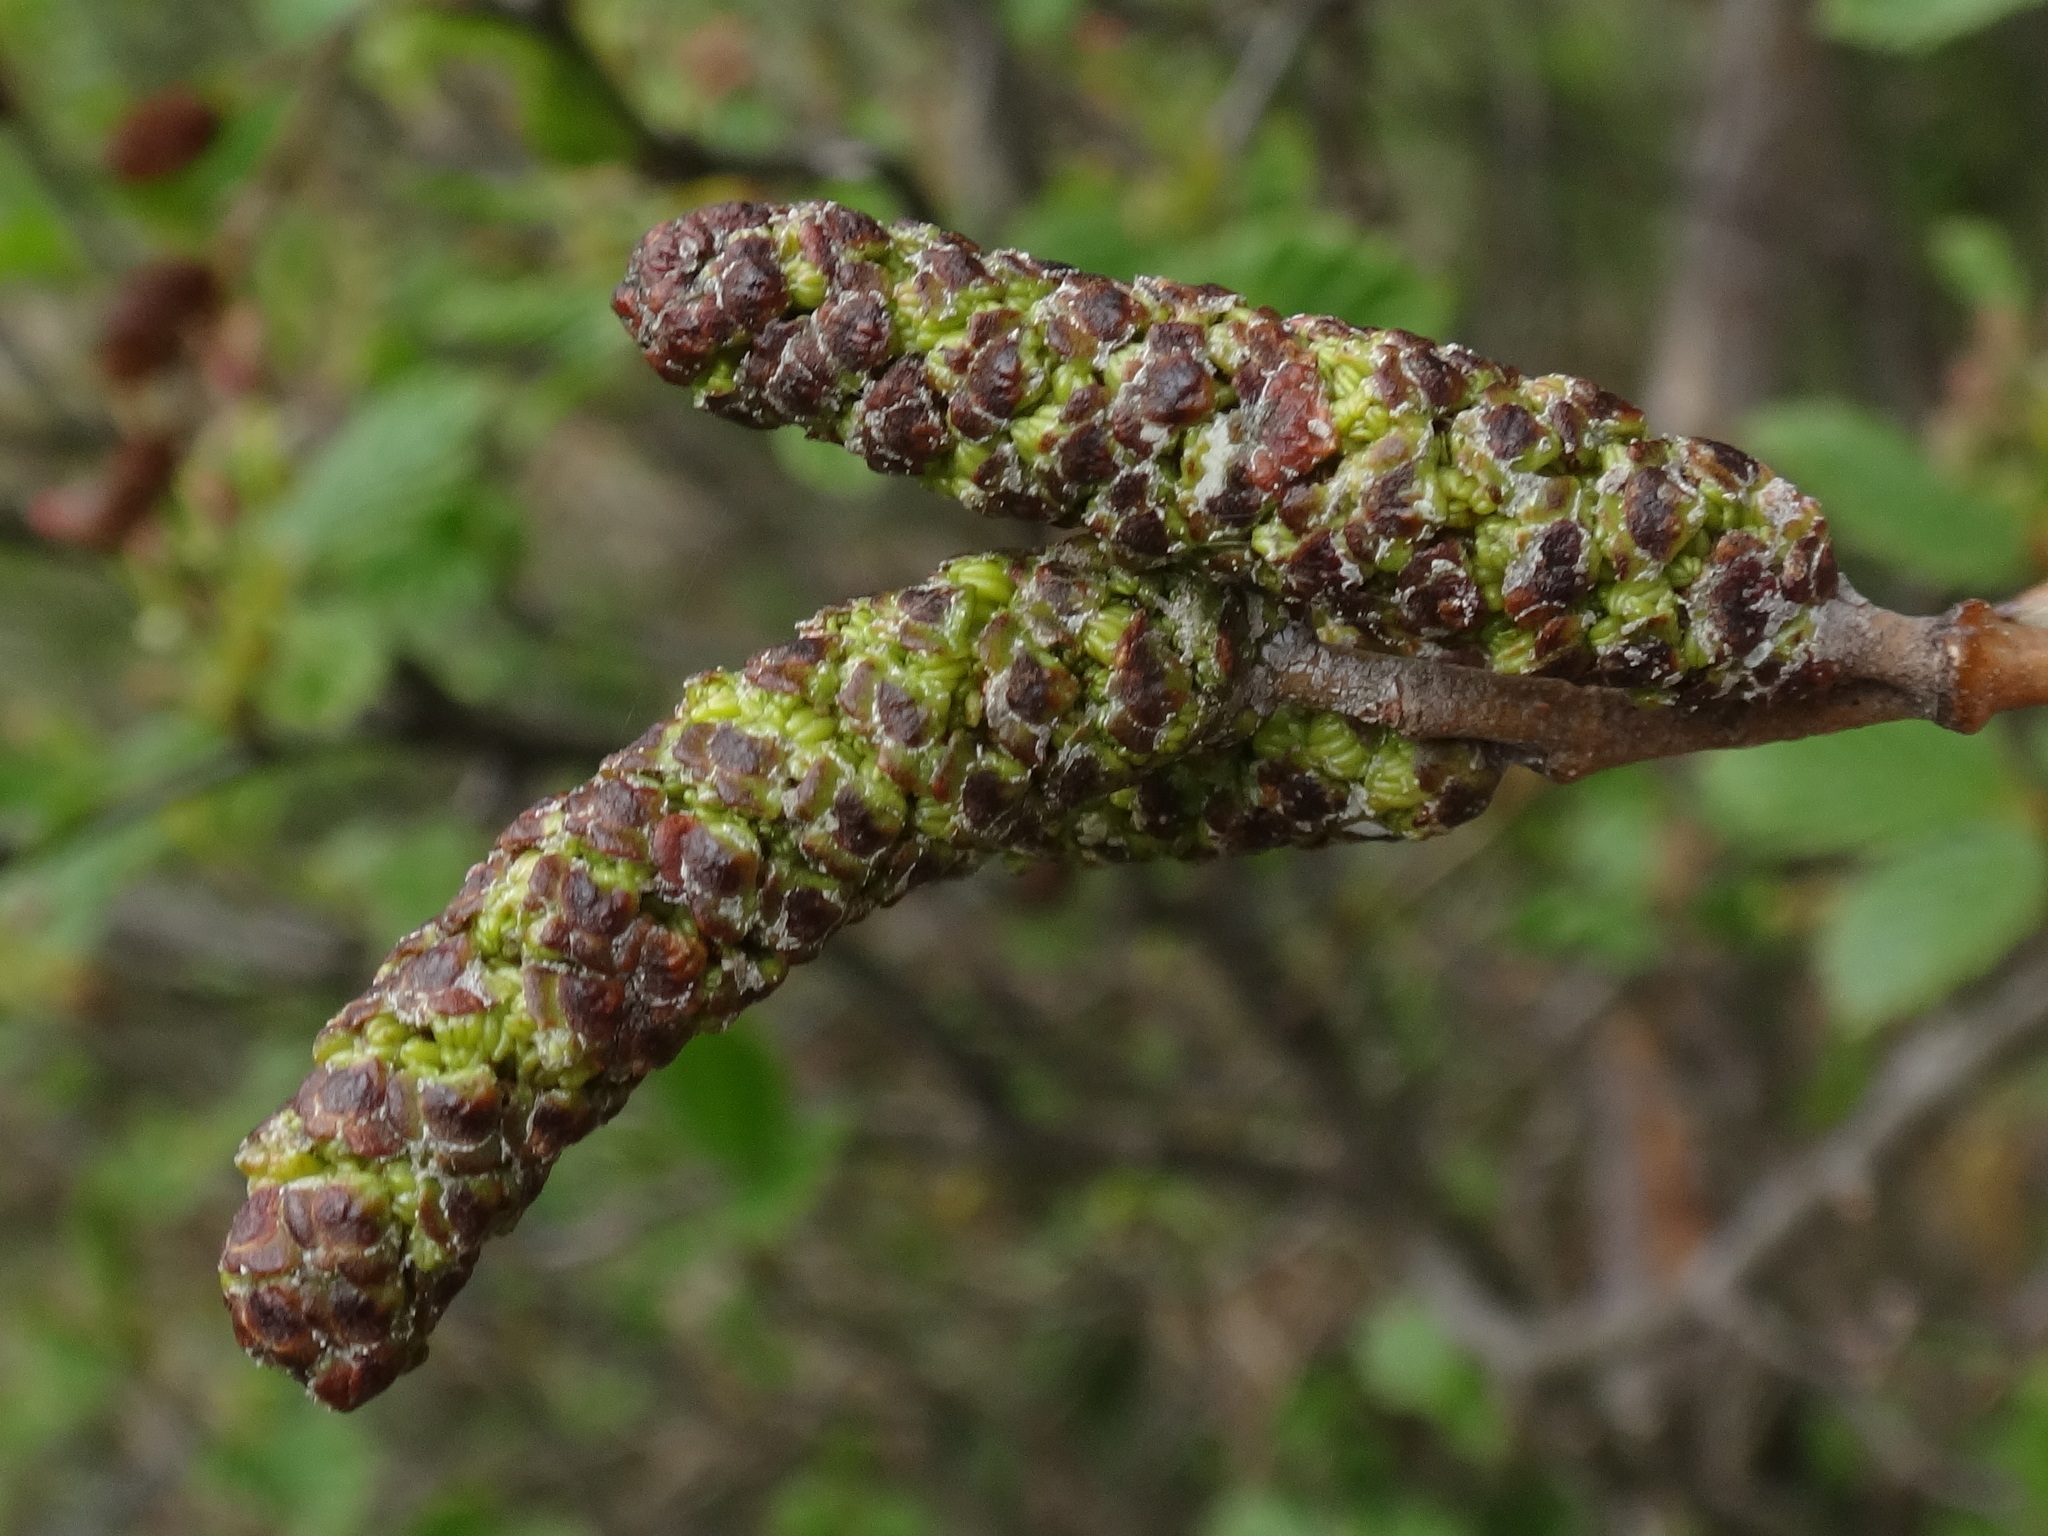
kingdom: Plantae
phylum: Tracheophyta
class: Magnoliopsida
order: Fagales
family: Betulaceae
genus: Alnus
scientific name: Alnus alnobetula
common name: Green alder
